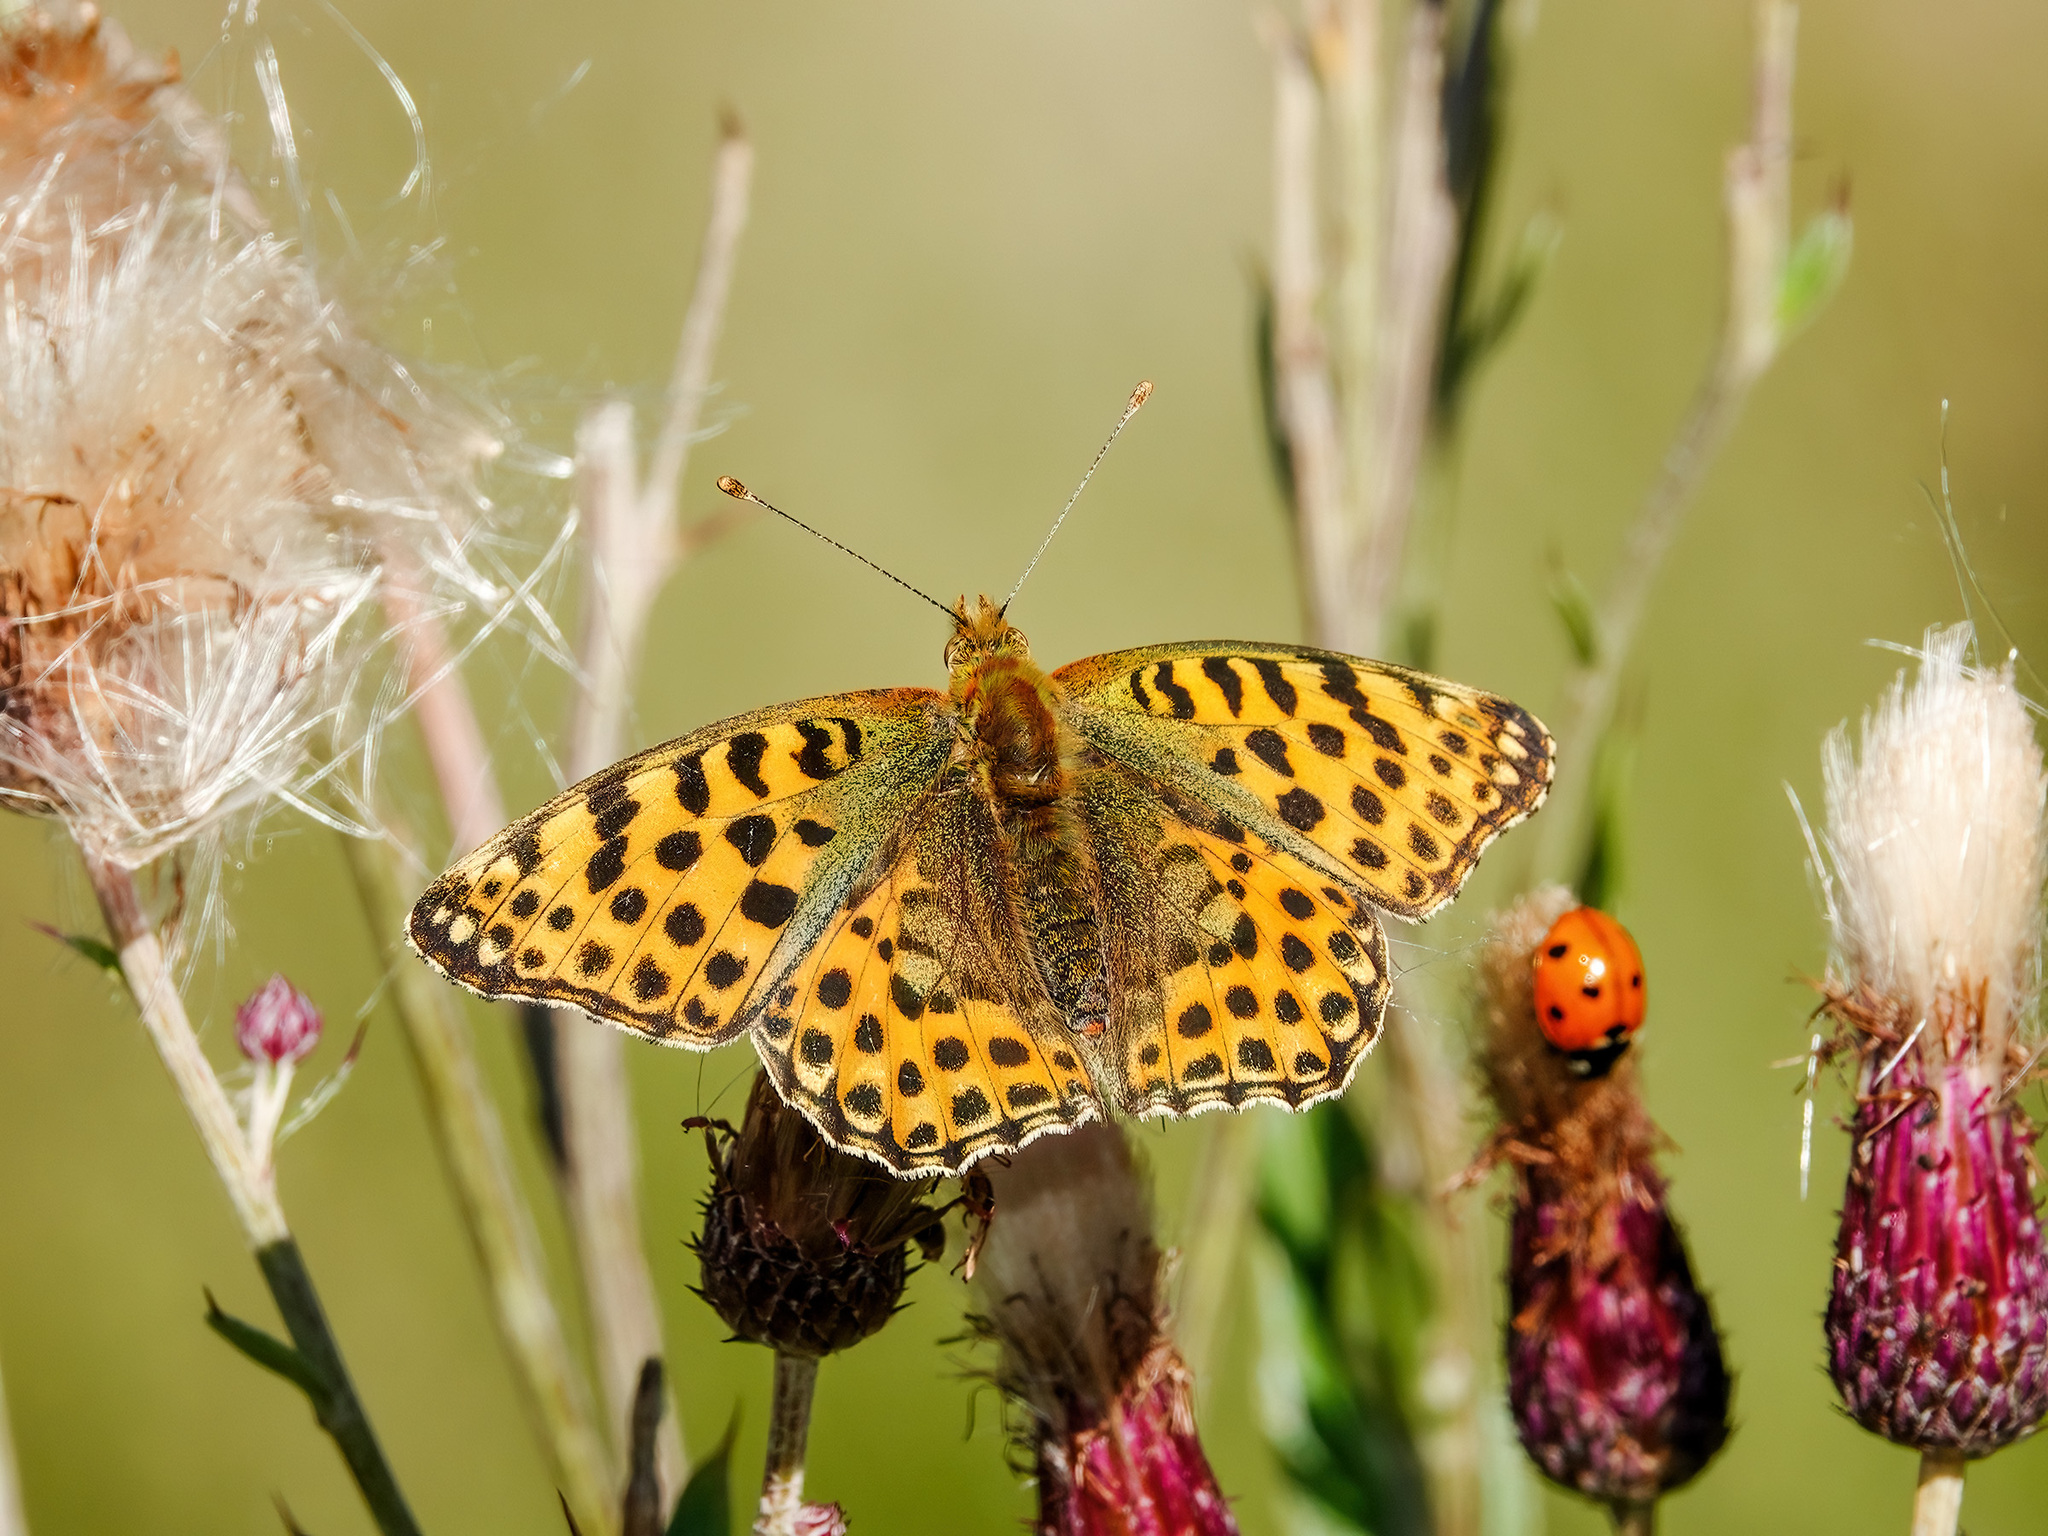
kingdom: Animalia
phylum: Arthropoda
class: Insecta
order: Lepidoptera
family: Nymphalidae
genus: Issoria
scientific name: Issoria lathonia
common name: Queen of spain fritillary
